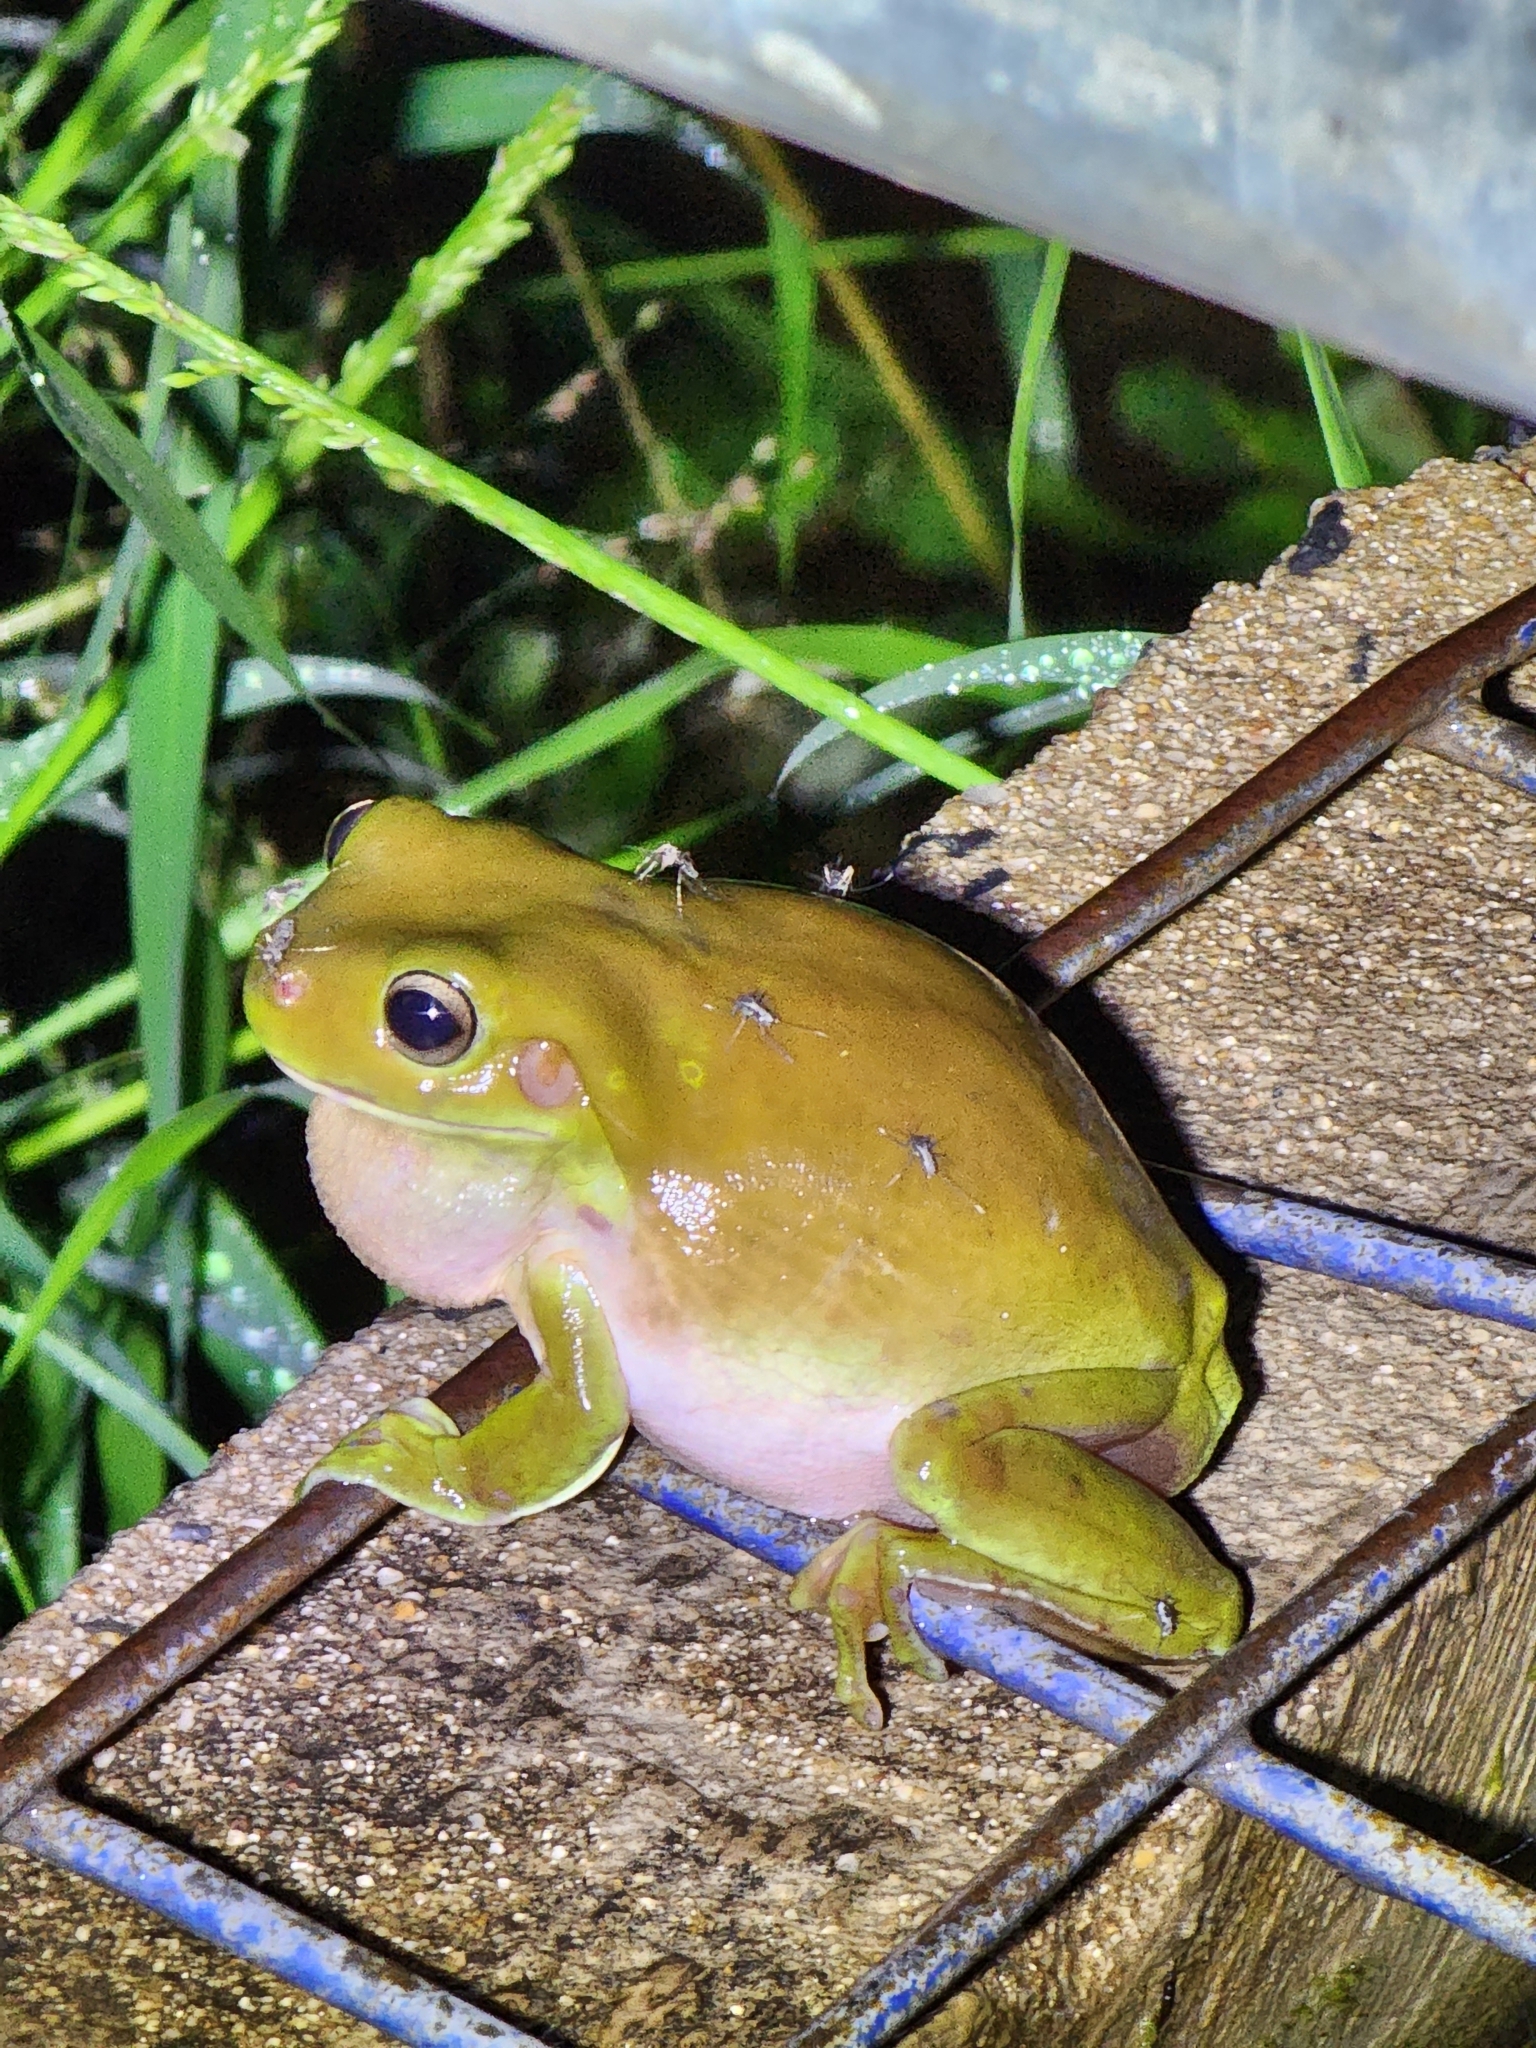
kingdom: Animalia
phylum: Chordata
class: Amphibia
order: Anura
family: Pelodryadidae
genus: Ranoidea
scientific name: Ranoidea caerulea
